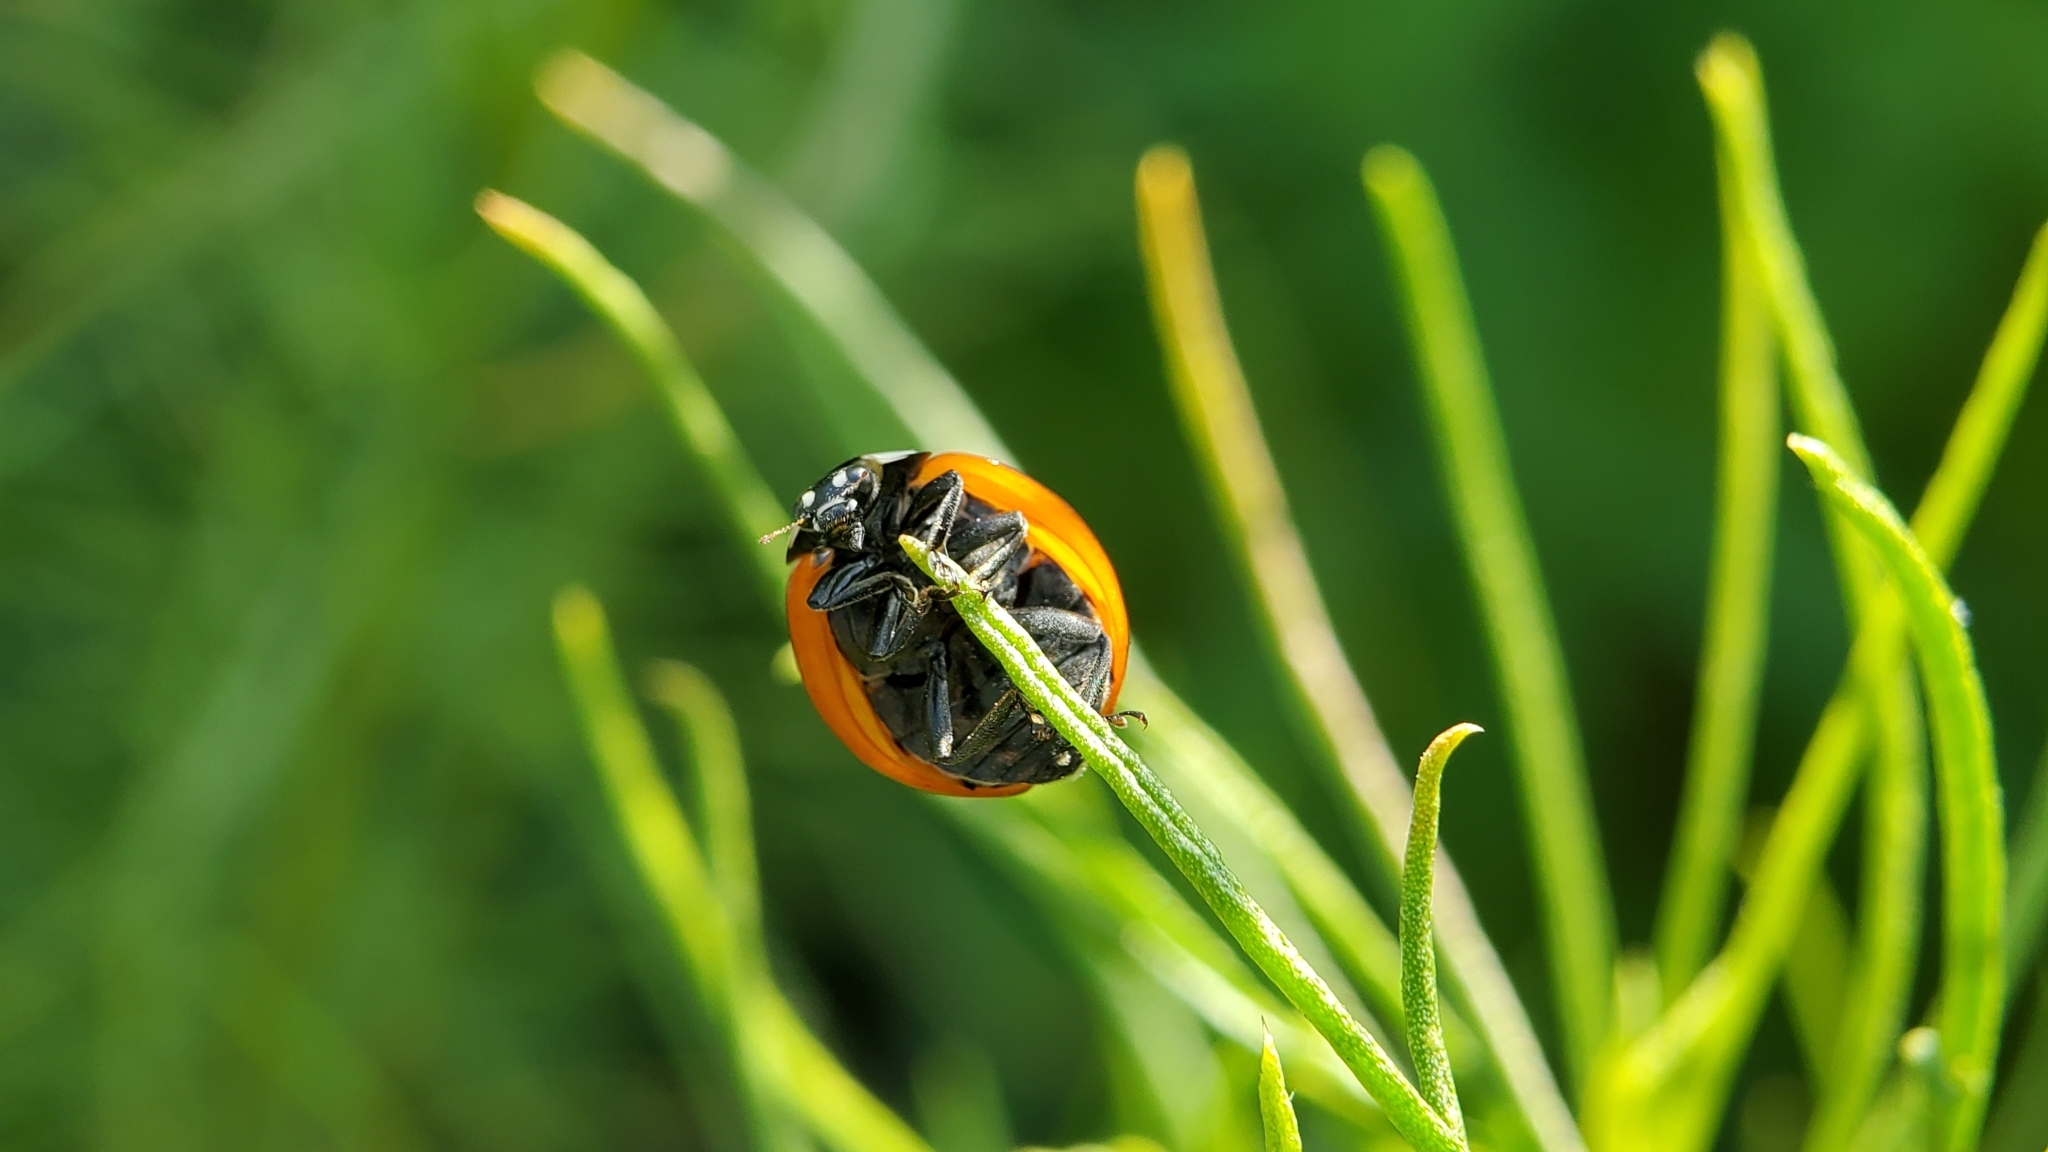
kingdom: Animalia
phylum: Arthropoda
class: Insecta
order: Coleoptera
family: Coccinellidae
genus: Coccinella
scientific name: Coccinella septempunctata
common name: Sevenspotted lady beetle
